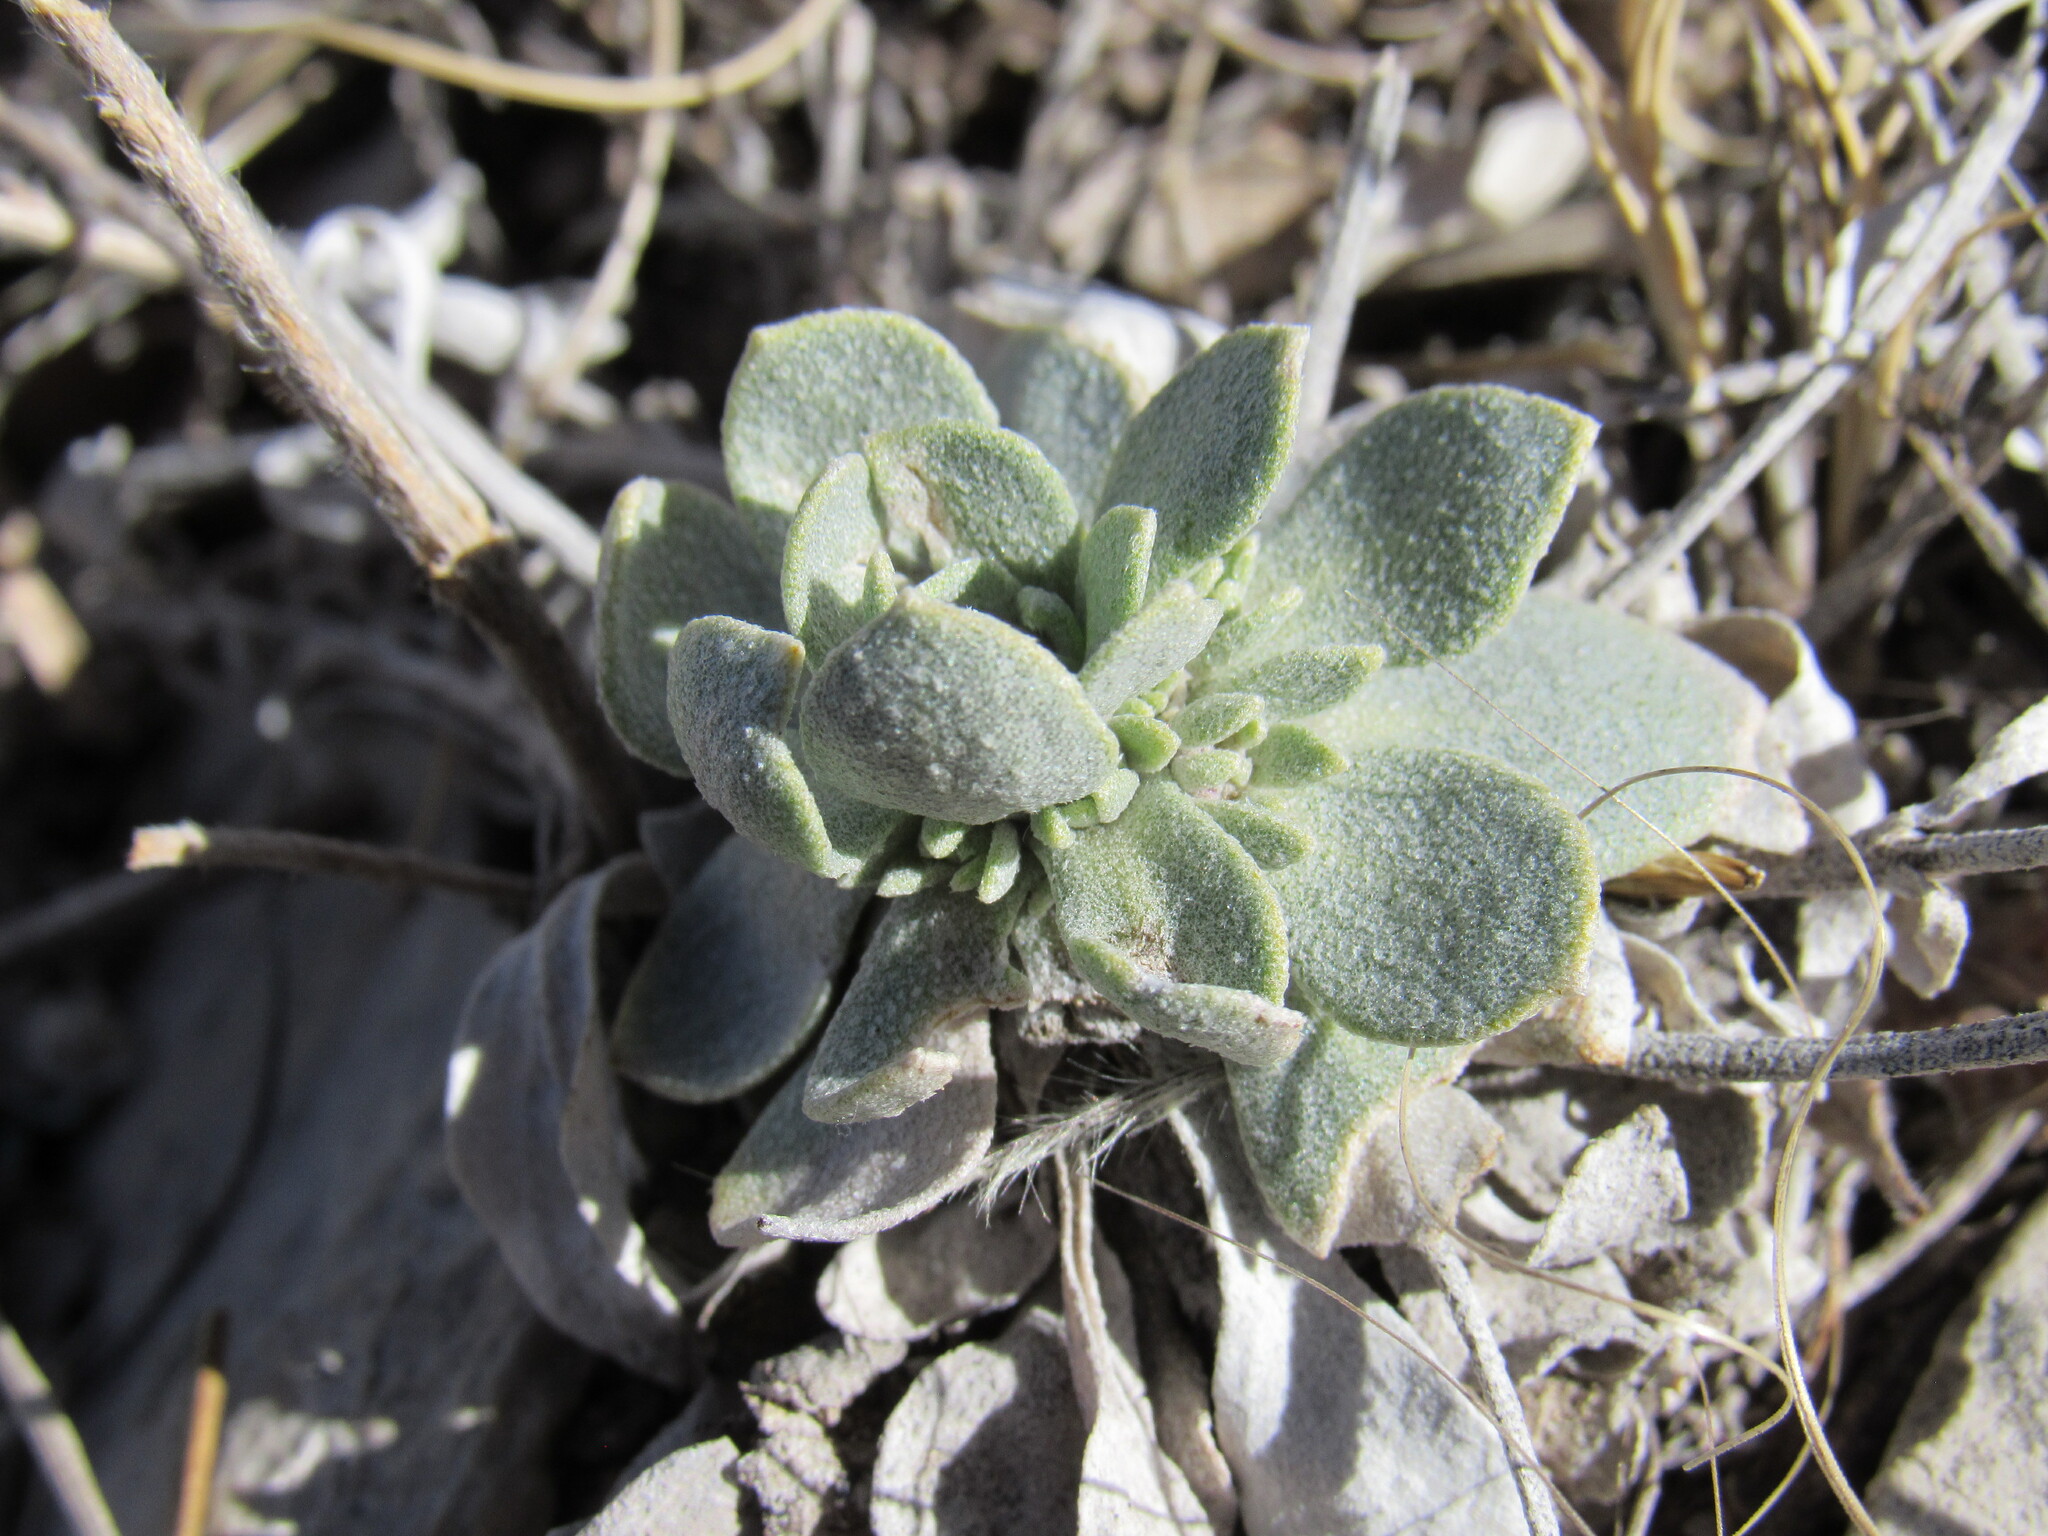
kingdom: Plantae
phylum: Tracheophyta
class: Magnoliopsida
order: Brassicales
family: Brassicaceae
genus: Physaria
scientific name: Physaria bellii
